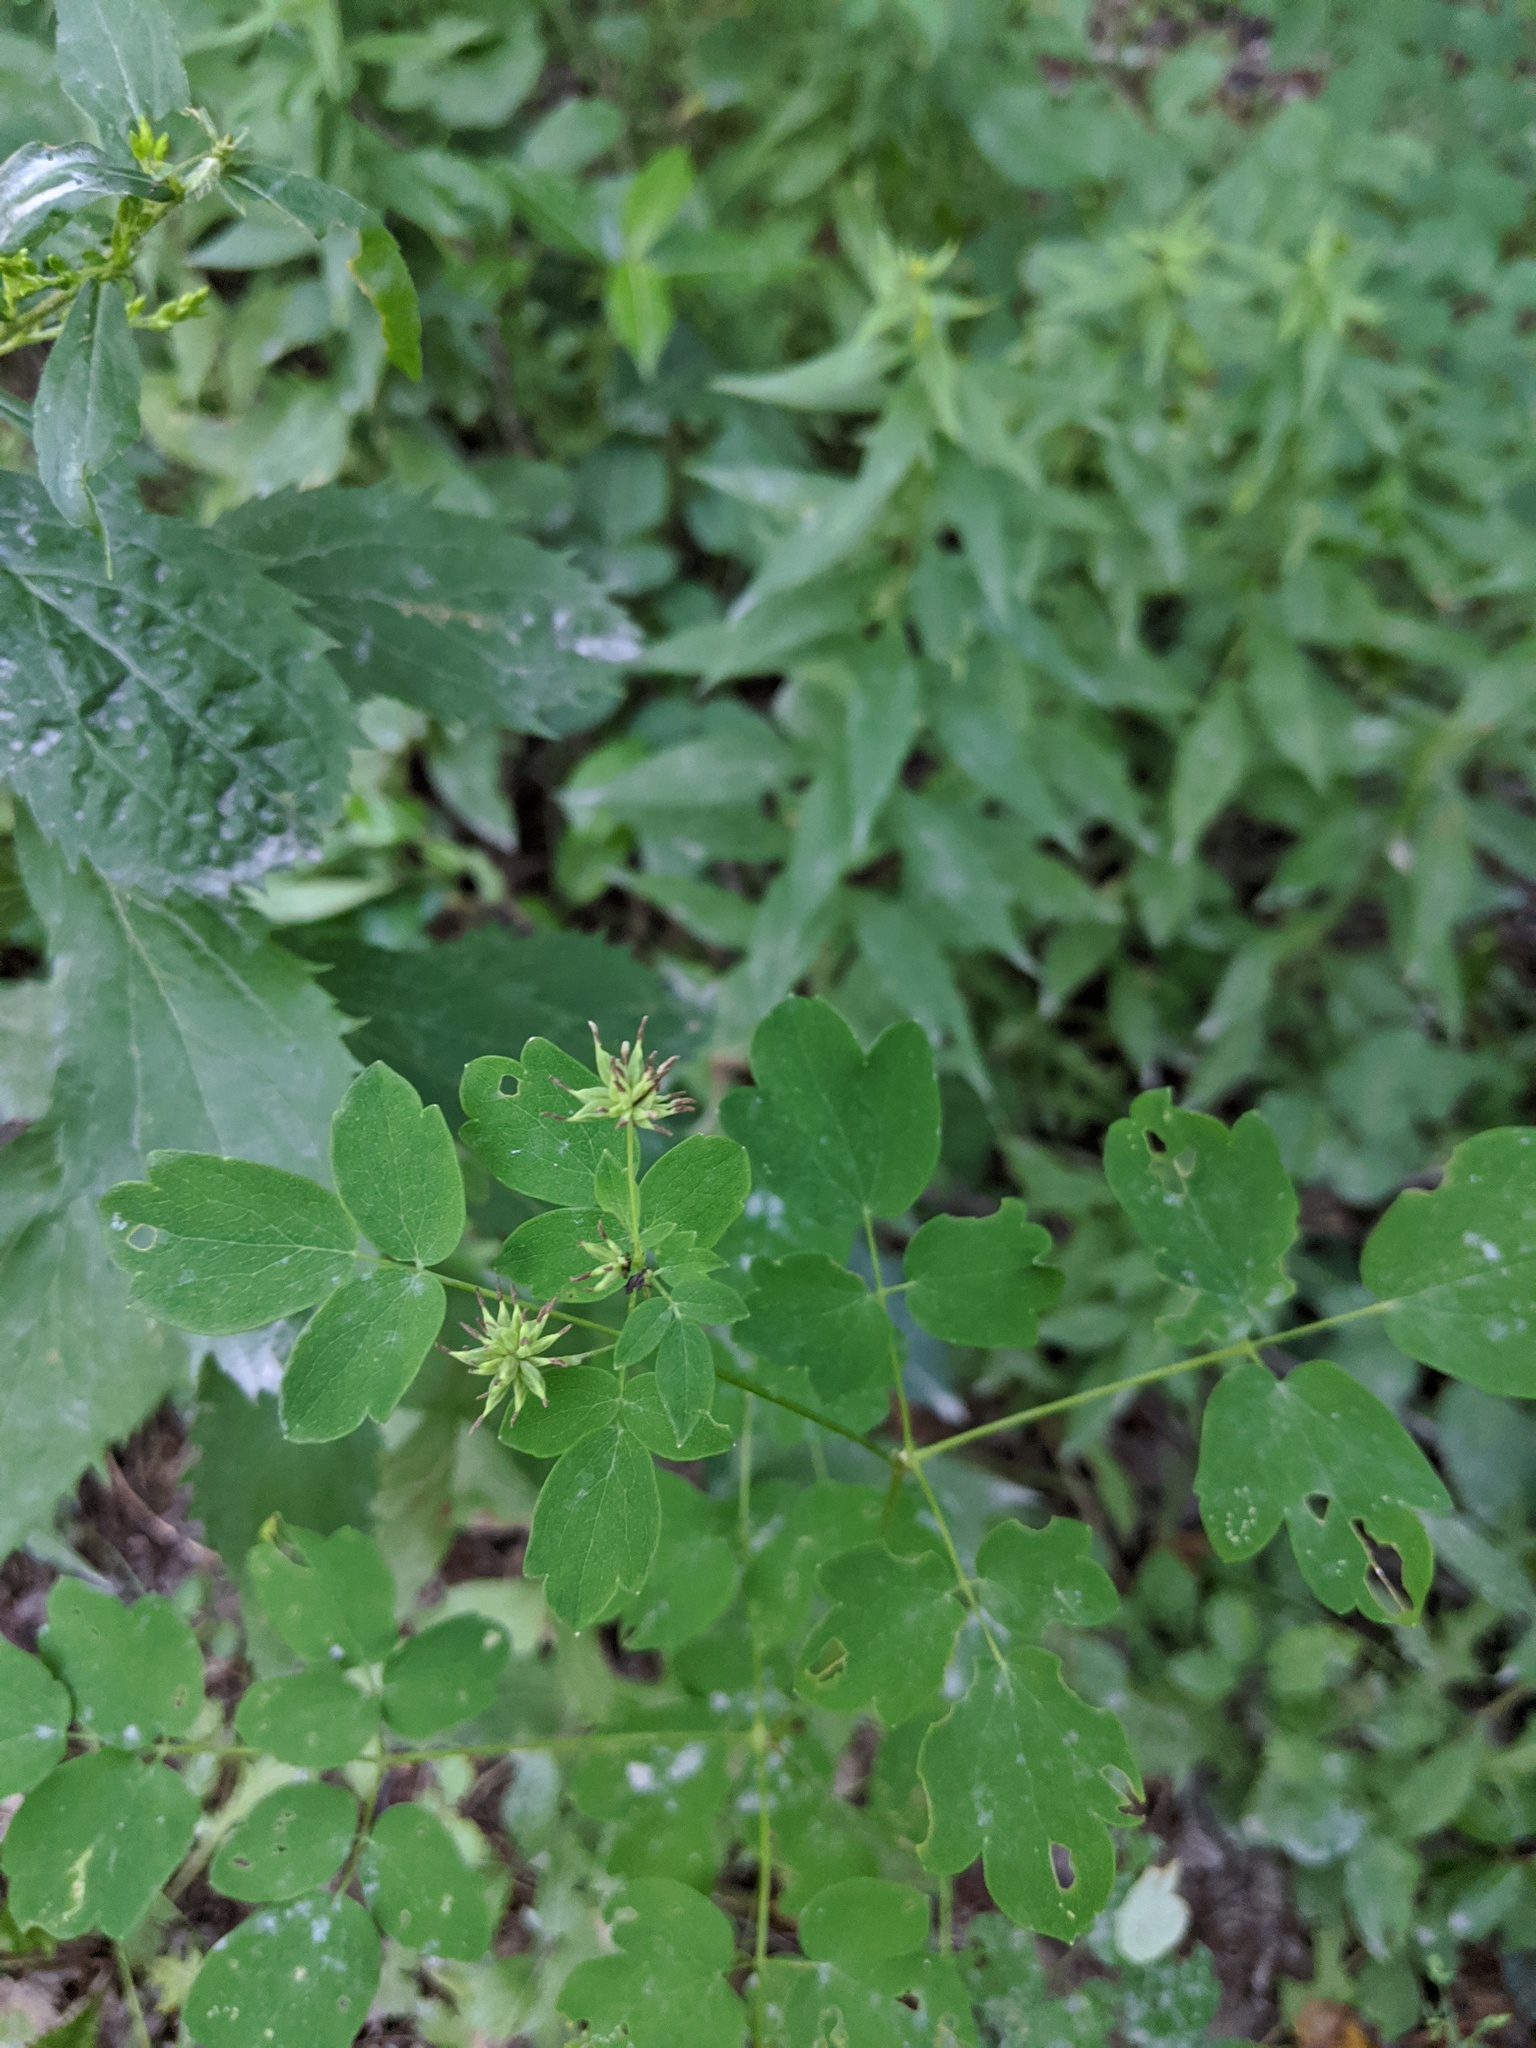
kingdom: Plantae
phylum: Tracheophyta
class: Magnoliopsida
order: Ranunculales
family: Ranunculaceae
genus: Thalictrum
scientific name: Thalictrum pubescens
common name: King-of-the-meadow
